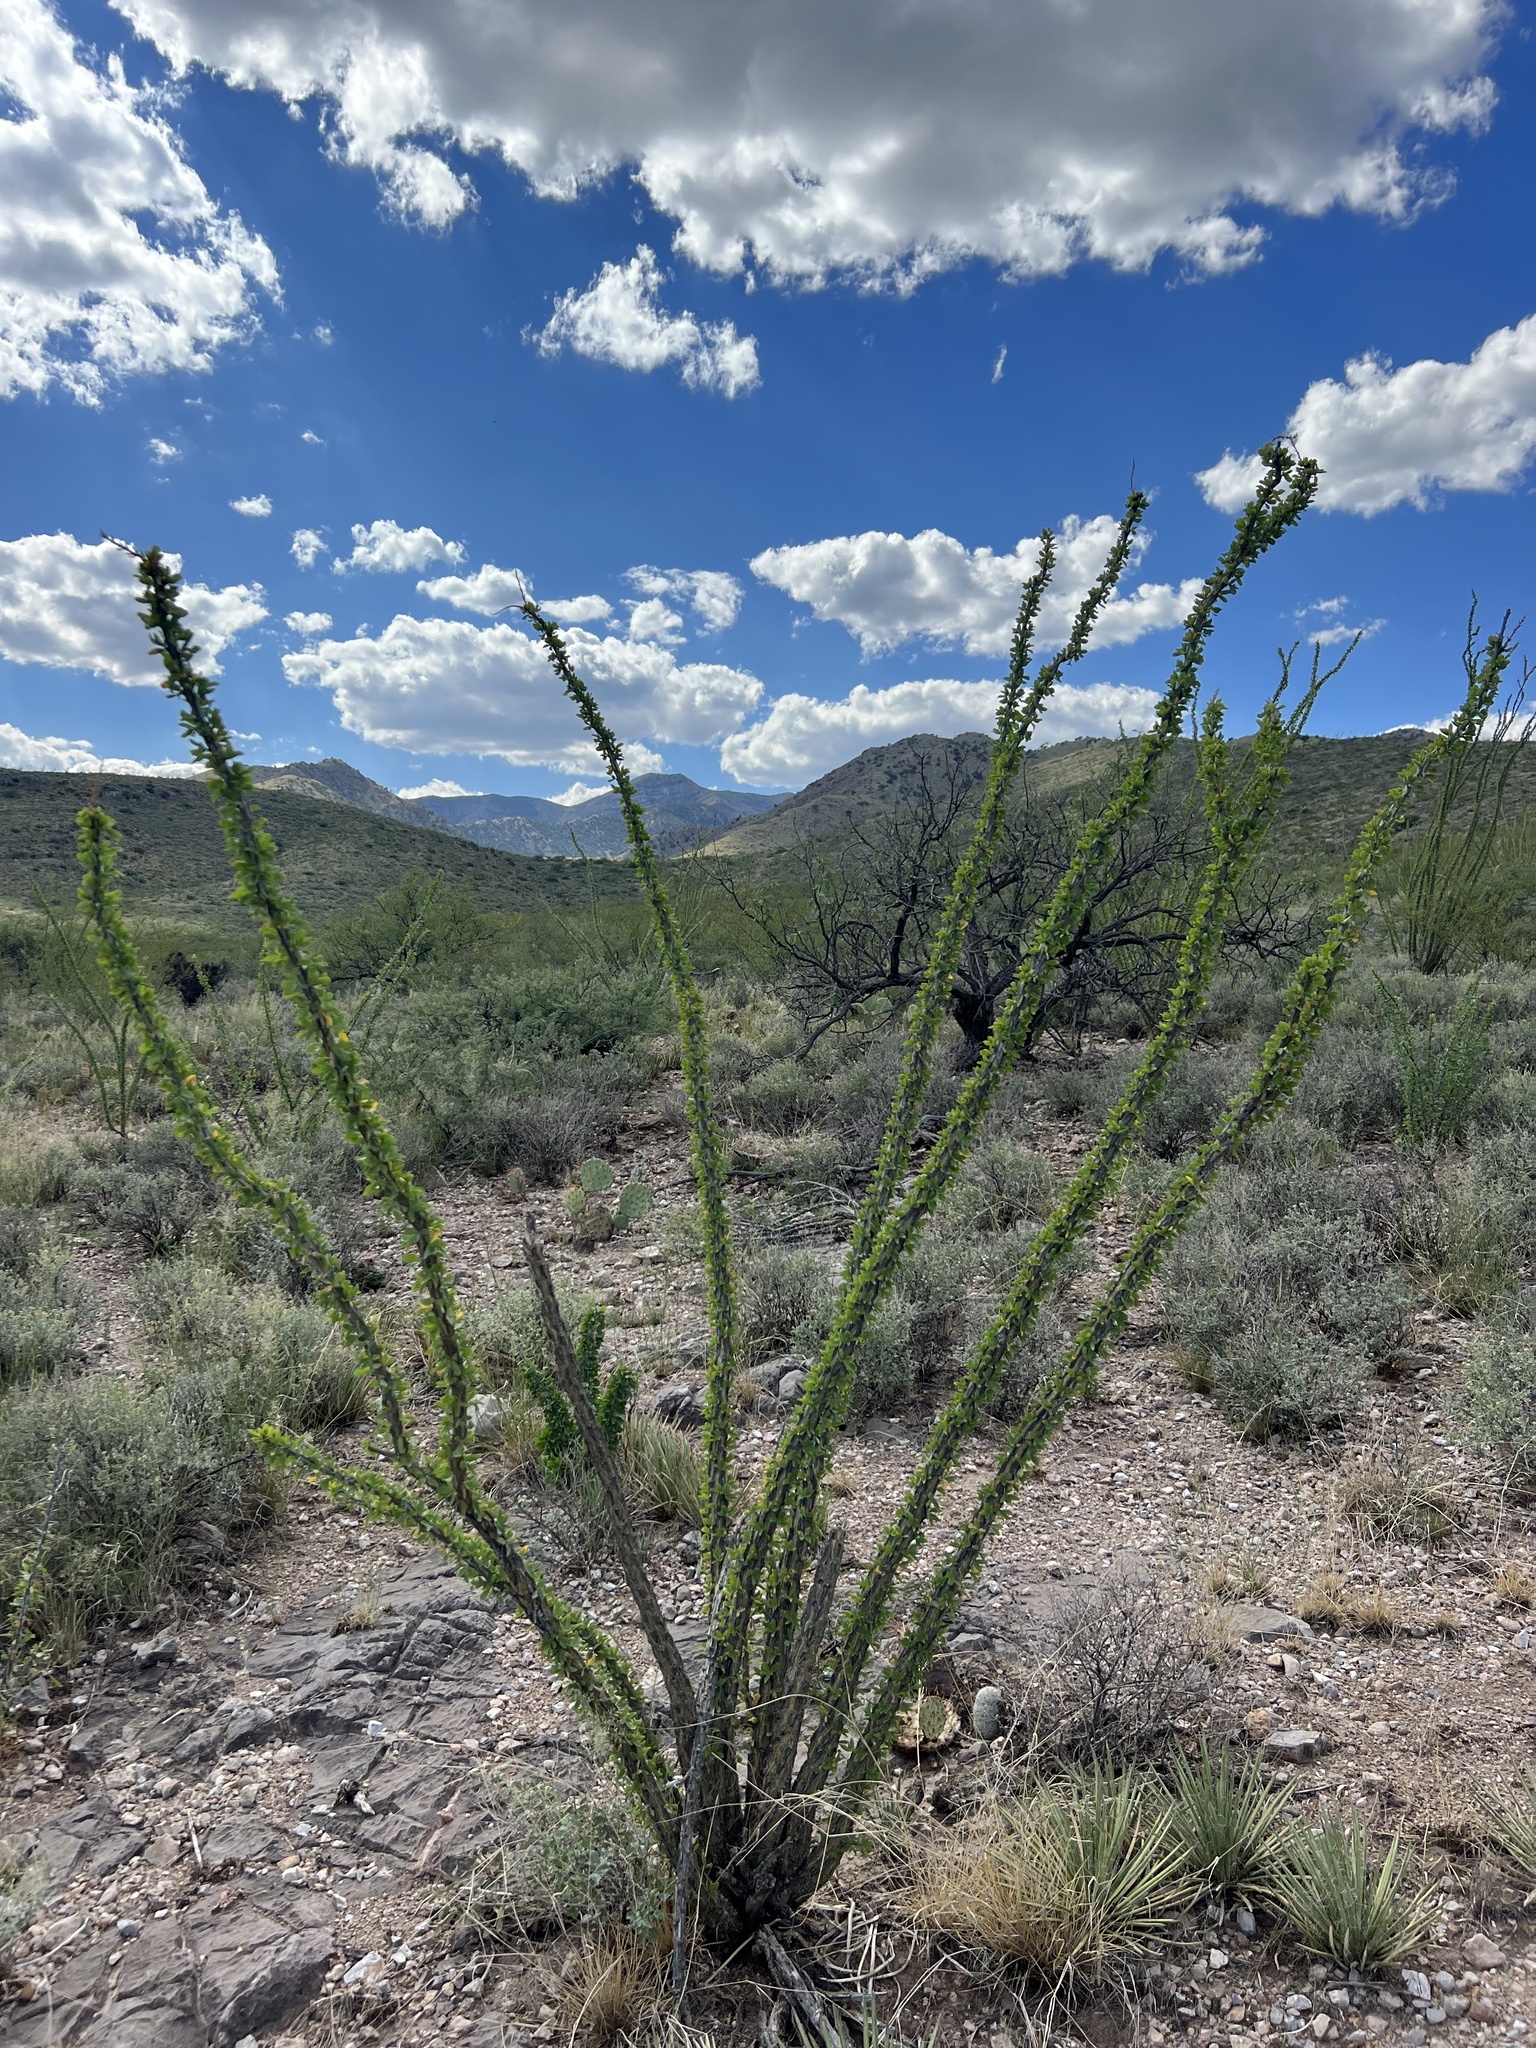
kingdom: Plantae
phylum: Tracheophyta
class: Magnoliopsida
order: Ericales
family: Fouquieriaceae
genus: Fouquieria
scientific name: Fouquieria splendens
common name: Vine-cactus
